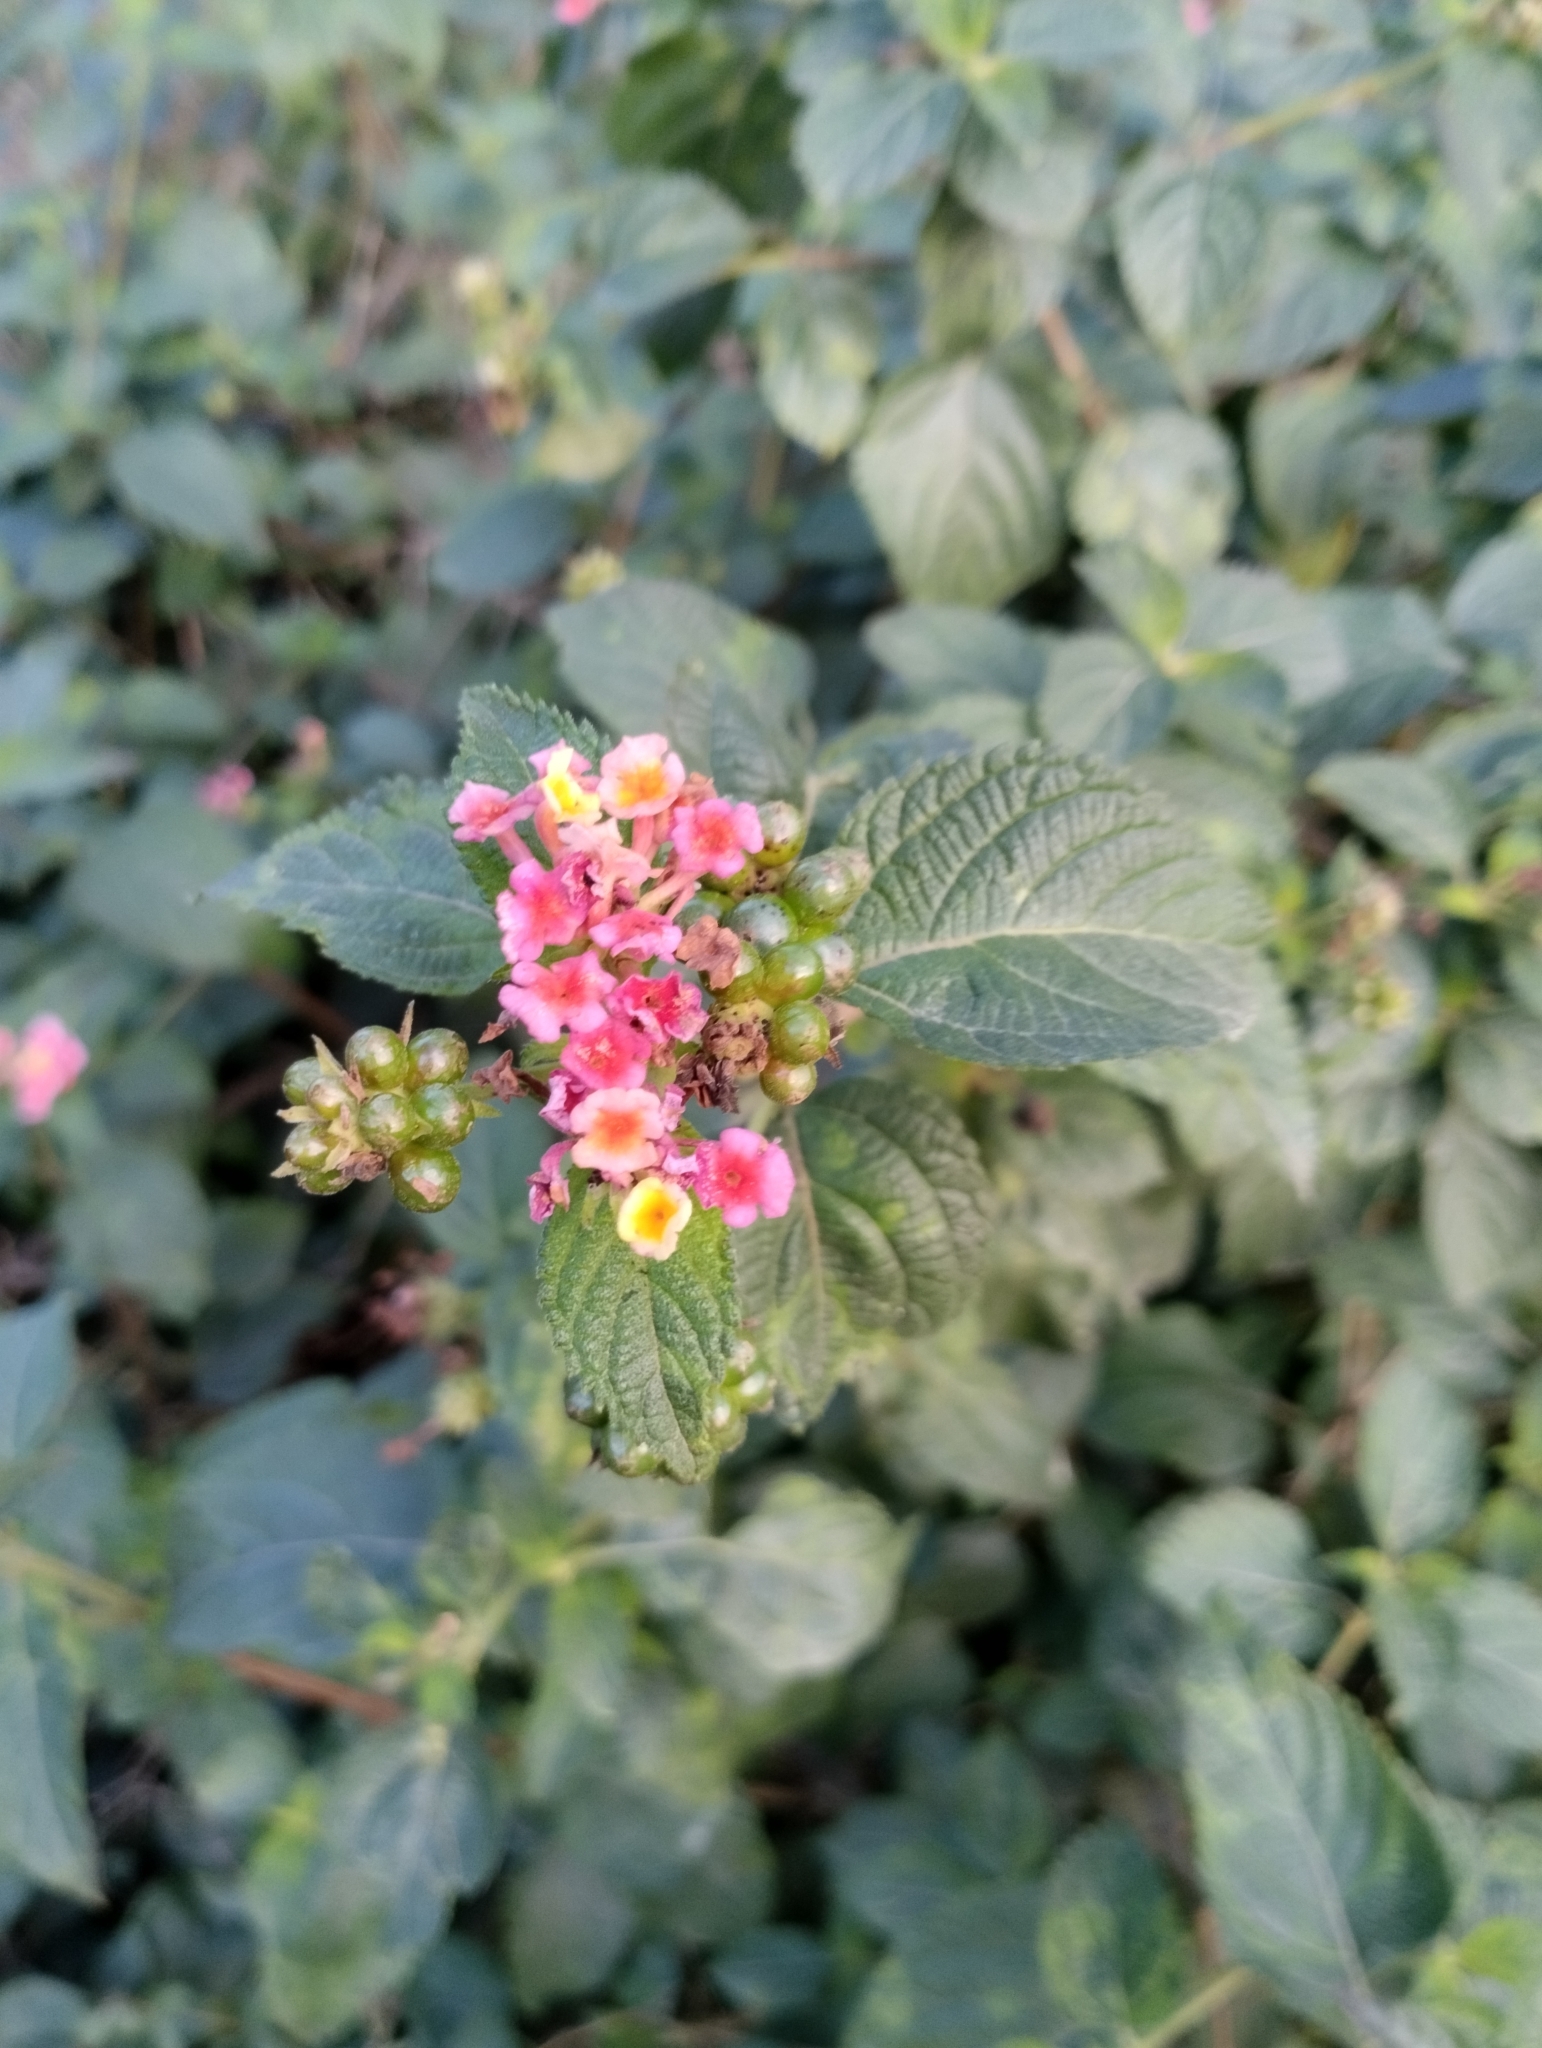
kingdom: Plantae
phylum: Tracheophyta
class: Magnoliopsida
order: Lamiales
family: Verbenaceae
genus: Lantana
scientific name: Lantana camara
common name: Lantana
